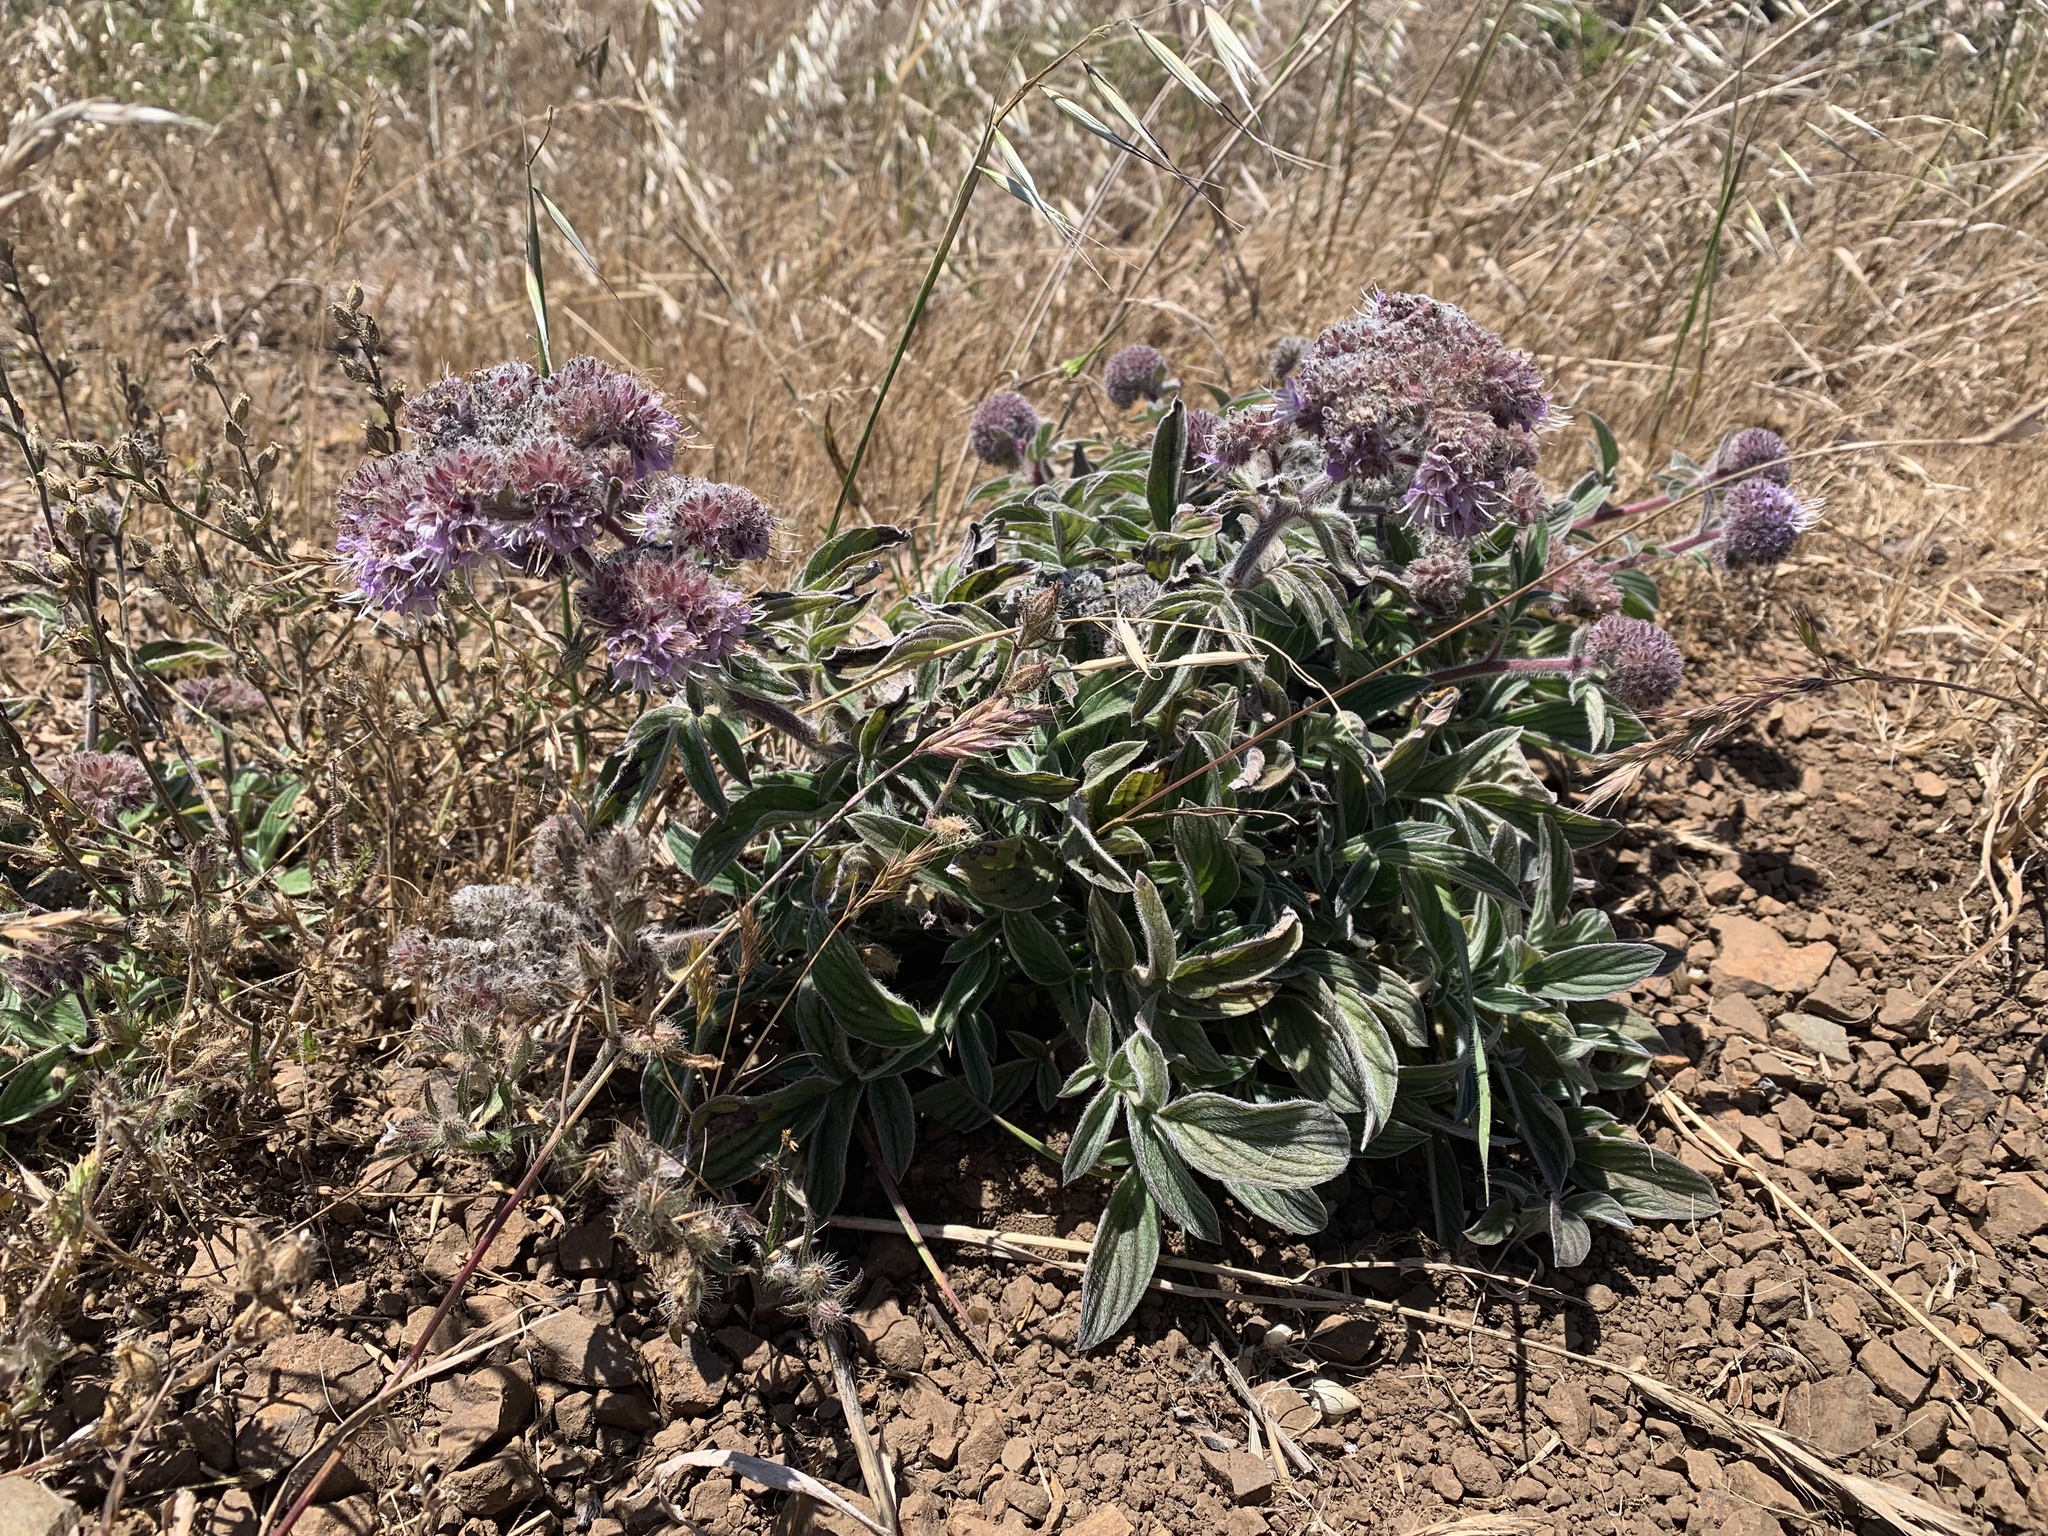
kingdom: Plantae
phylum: Tracheophyta
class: Magnoliopsida
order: Boraginales
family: Hydrophyllaceae
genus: Phacelia
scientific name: Phacelia californica
